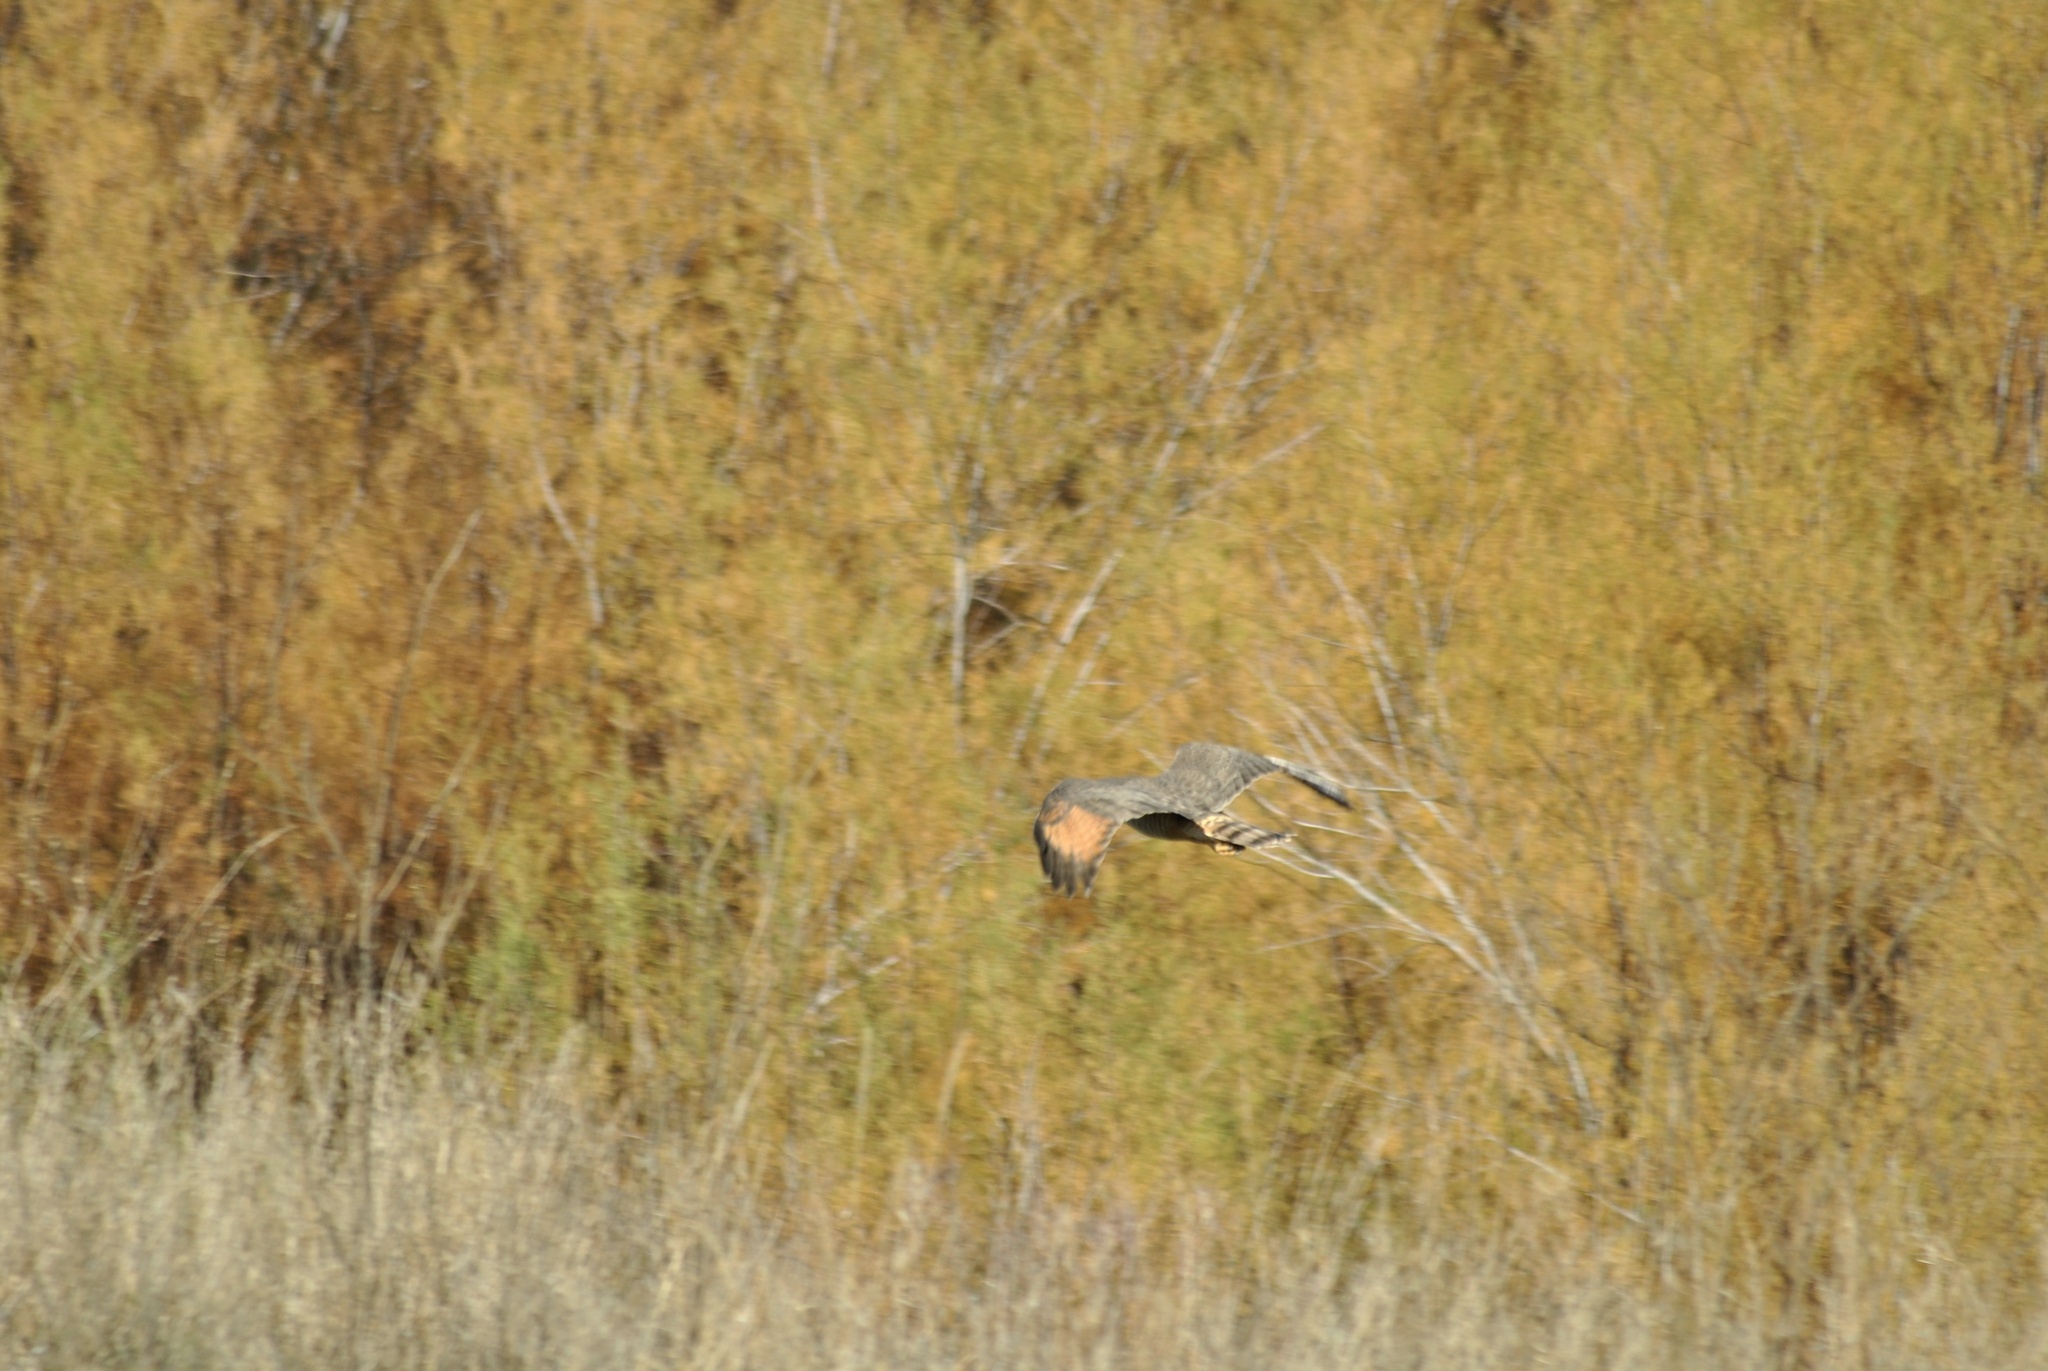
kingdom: Animalia
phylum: Chordata
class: Aves
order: Accipitriformes
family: Accipitridae
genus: Rupornis
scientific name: Rupornis magnirostris
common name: Roadside hawk
